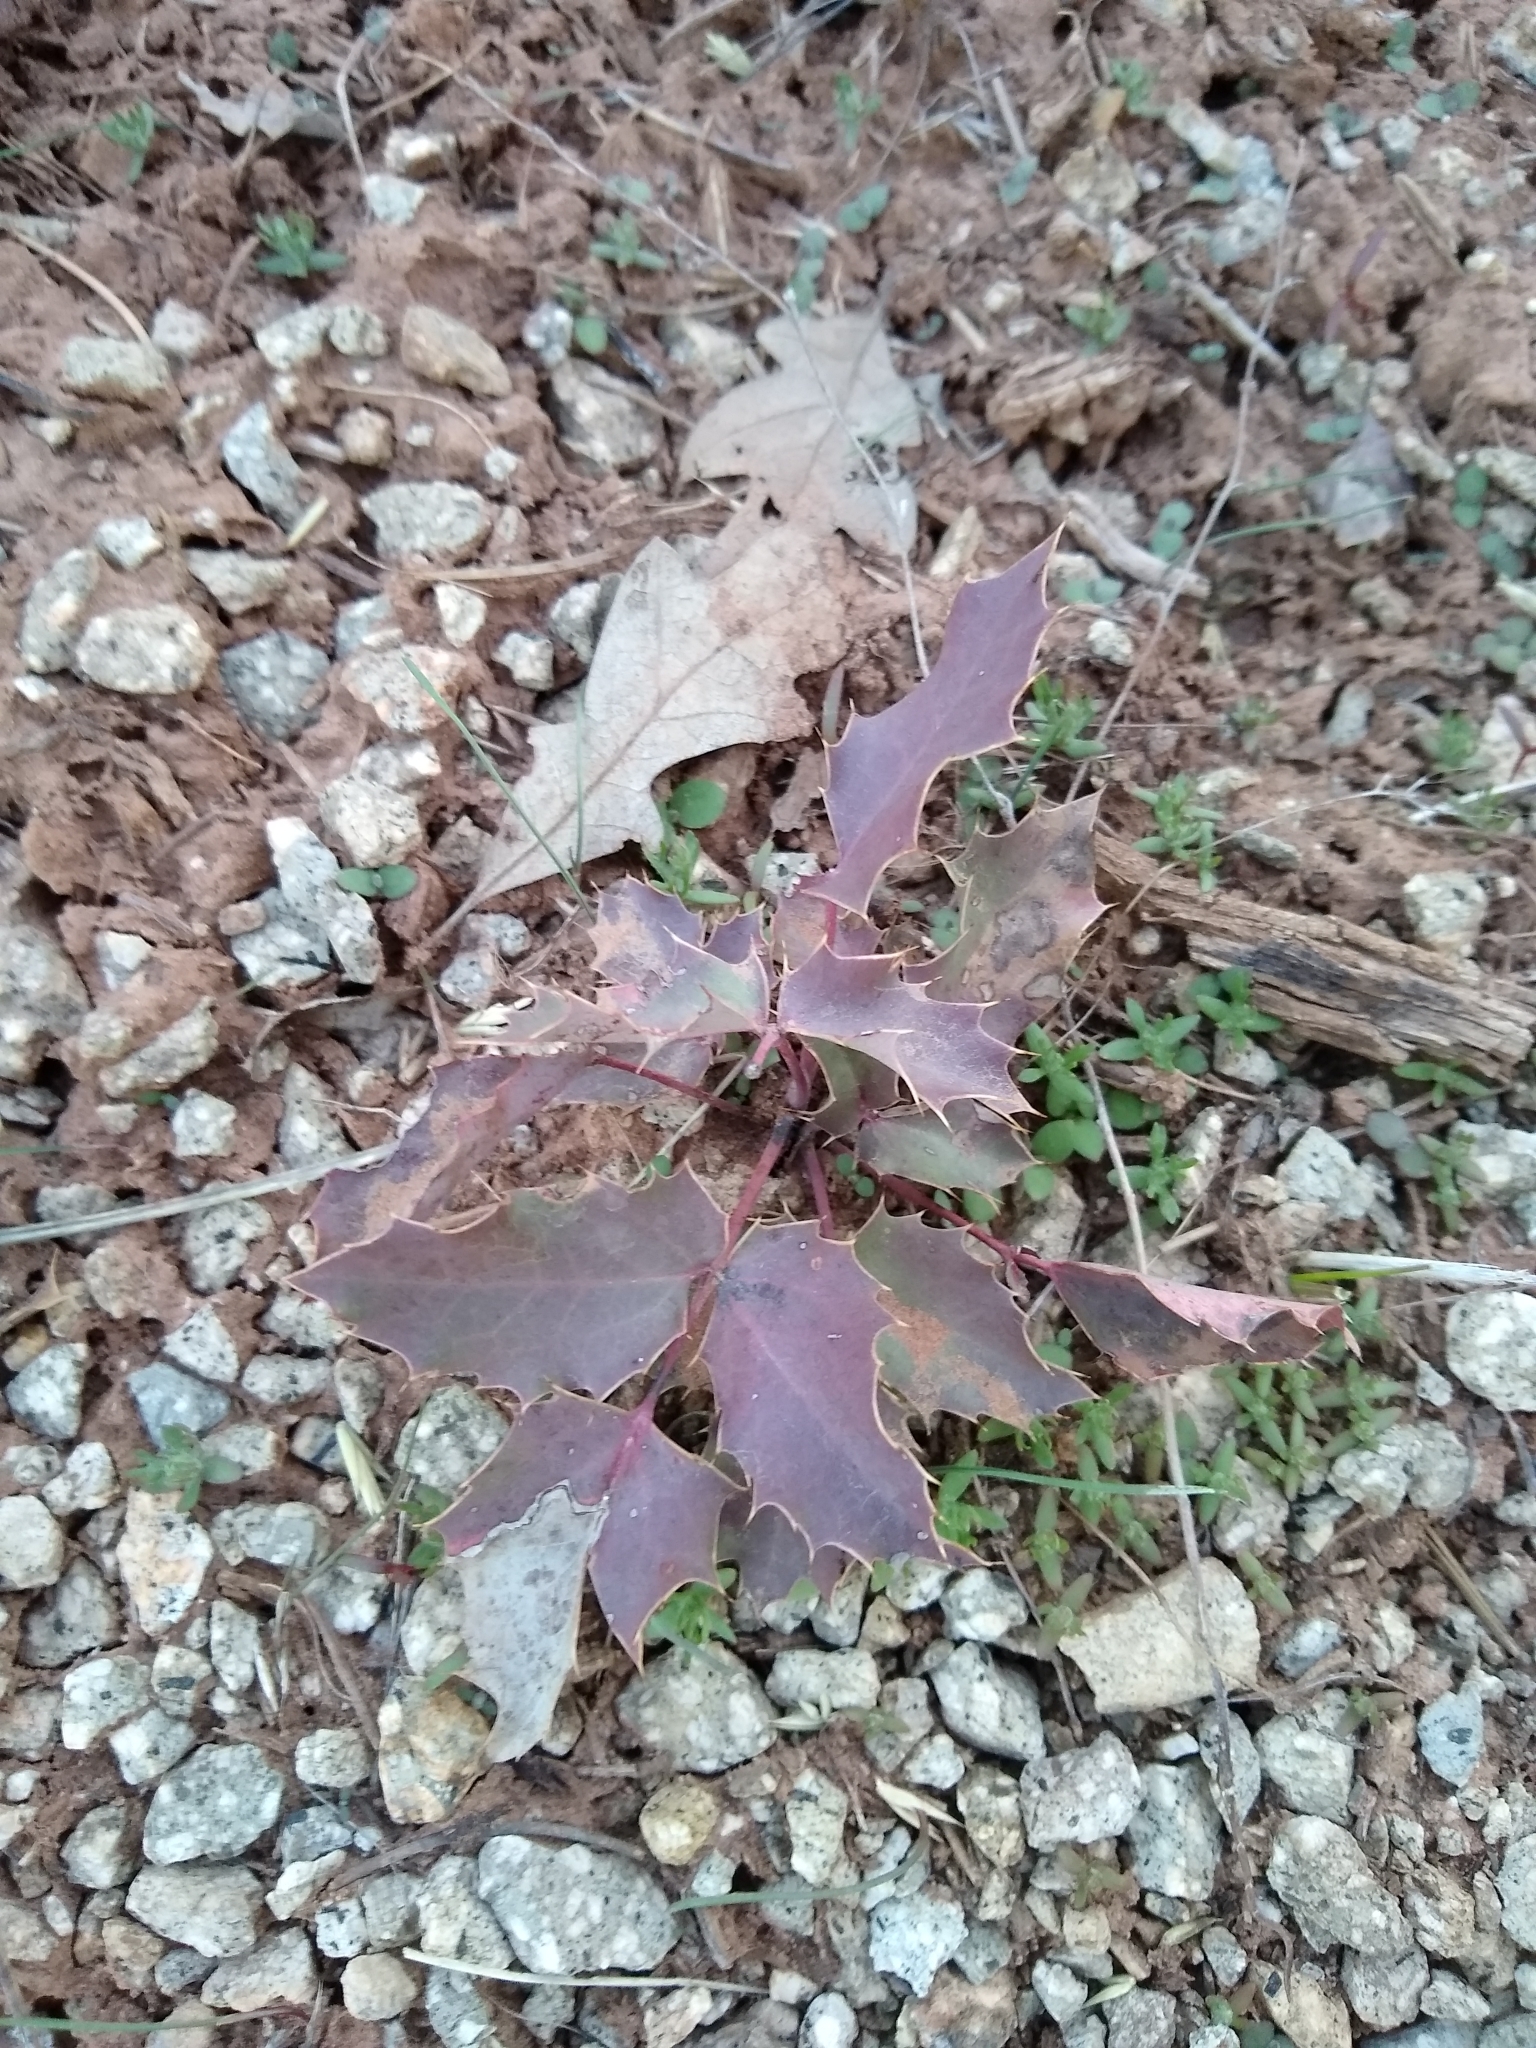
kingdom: Plantae
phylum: Tracheophyta
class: Magnoliopsida
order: Ranunculales
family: Berberidaceae
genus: Mahonia
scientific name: Mahonia repens
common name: Creeping oregon-grape
